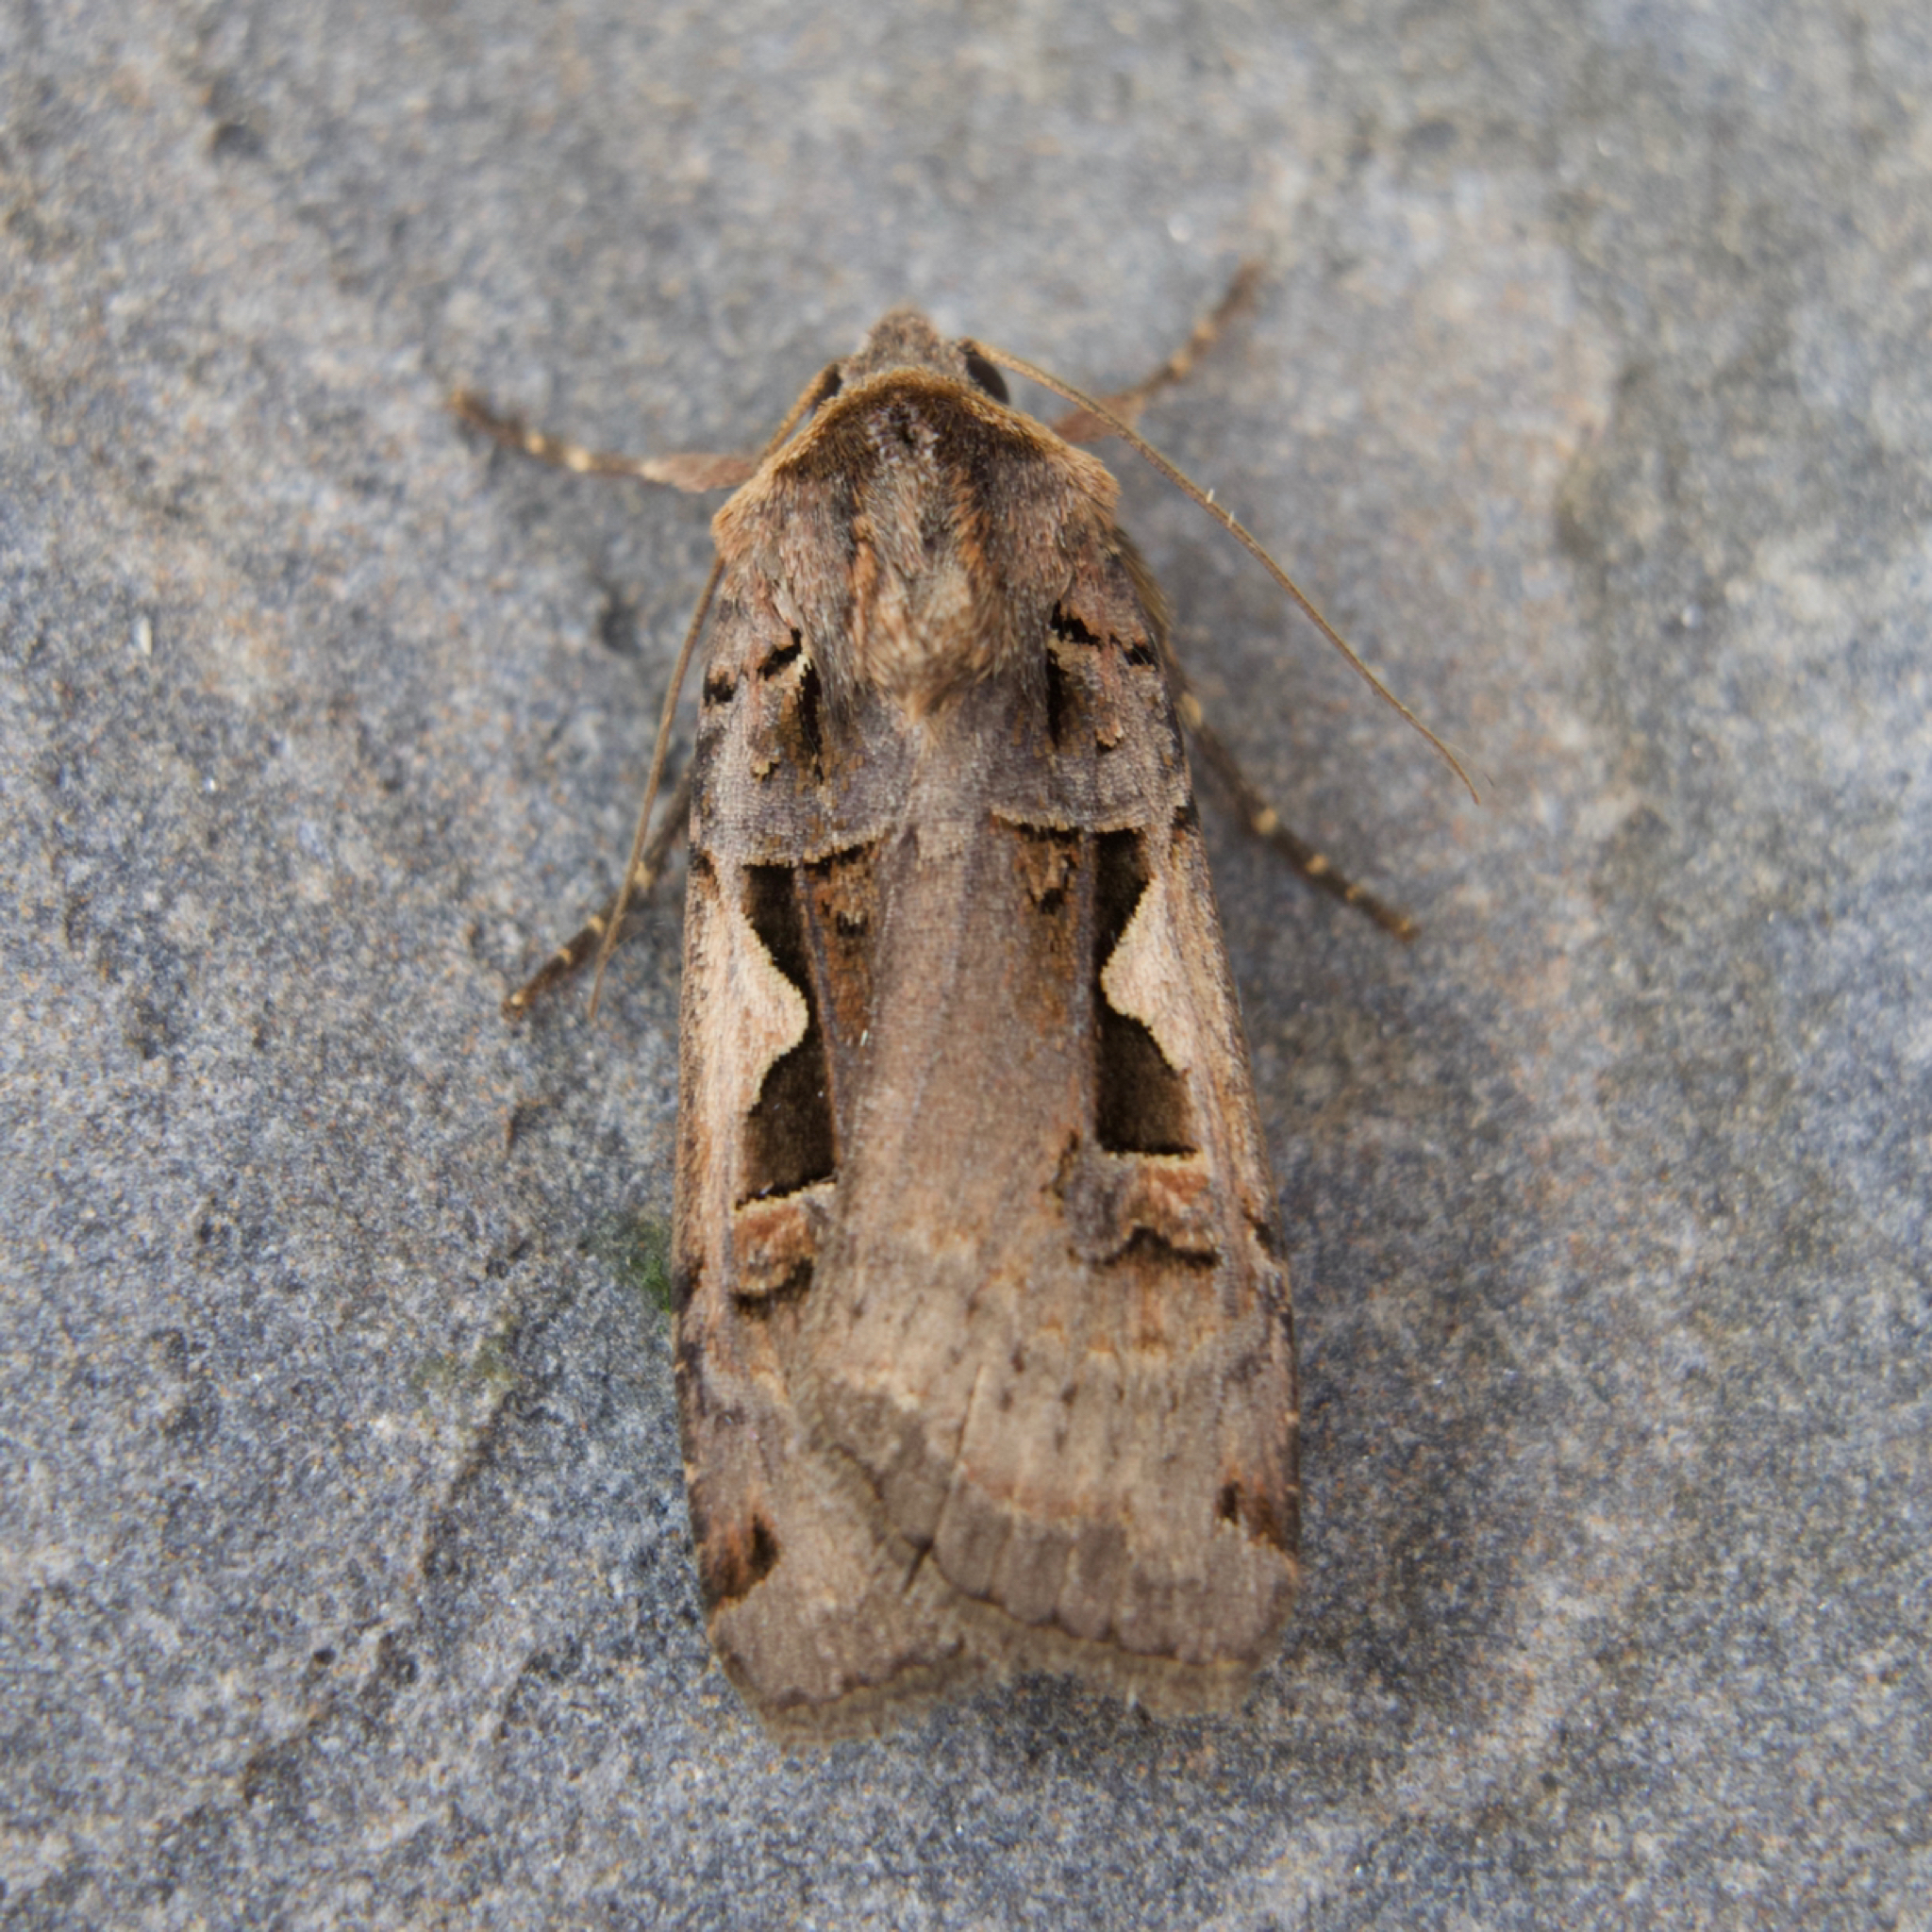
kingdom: Animalia
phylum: Arthropoda
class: Insecta
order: Lepidoptera
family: Noctuidae
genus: Xestia
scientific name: Xestia c-nigrum
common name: Setaceous hebrew character
